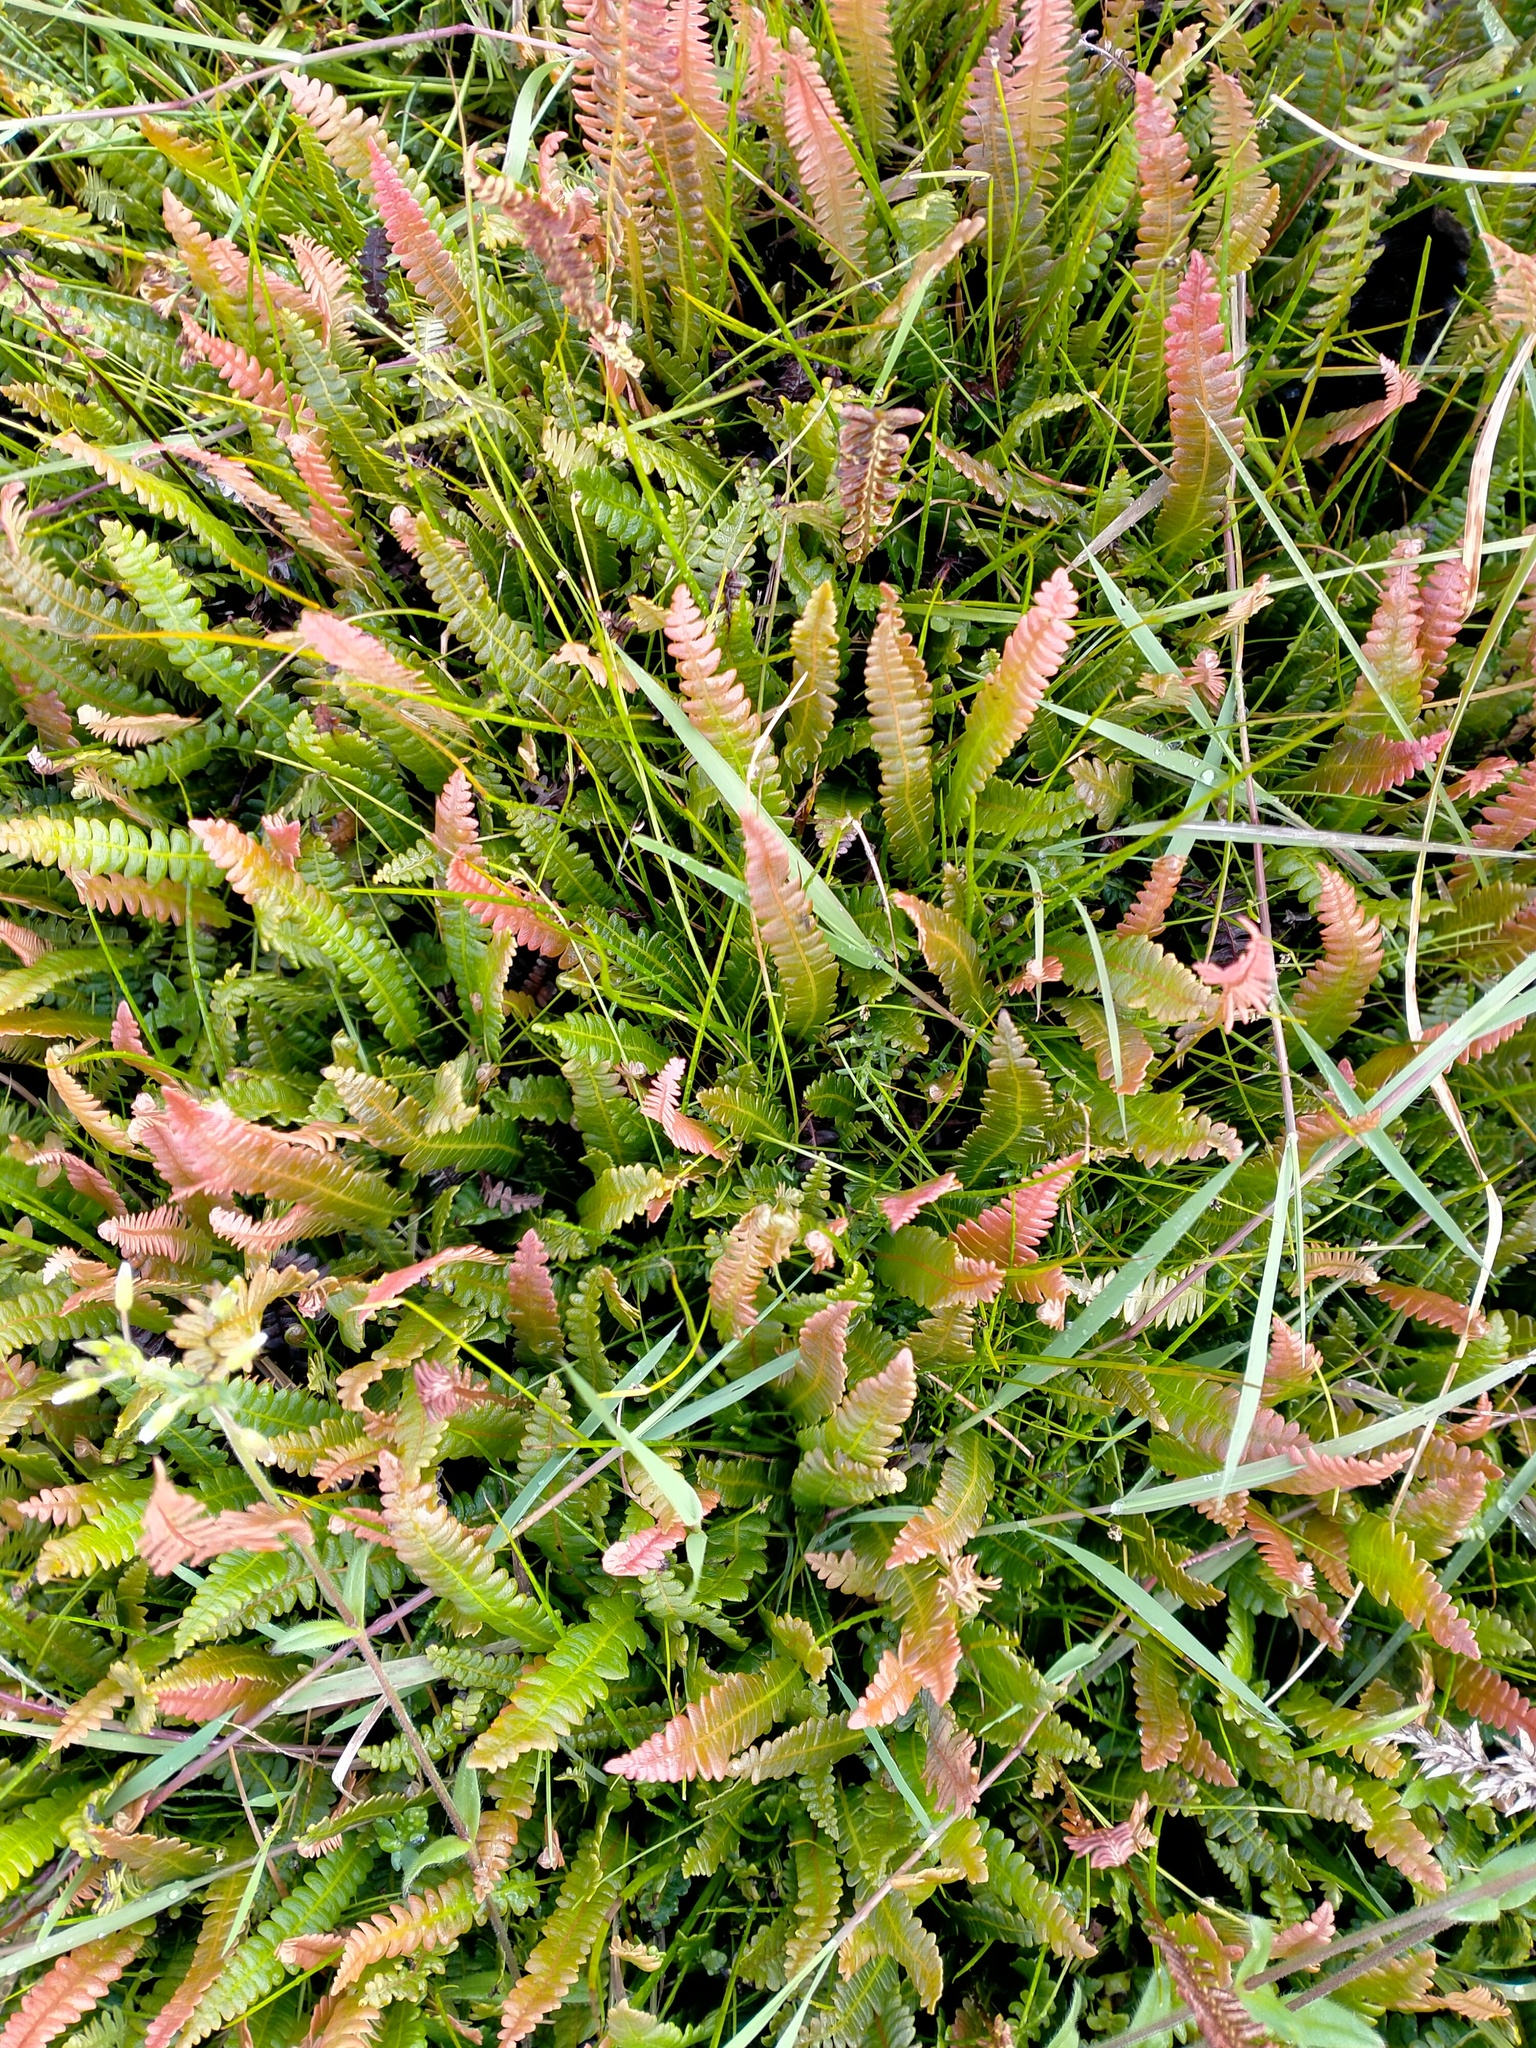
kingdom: Plantae
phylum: Tracheophyta
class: Polypodiopsida
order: Polypodiales
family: Blechnaceae
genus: Austroblechnum
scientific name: Austroblechnum penna-marina
